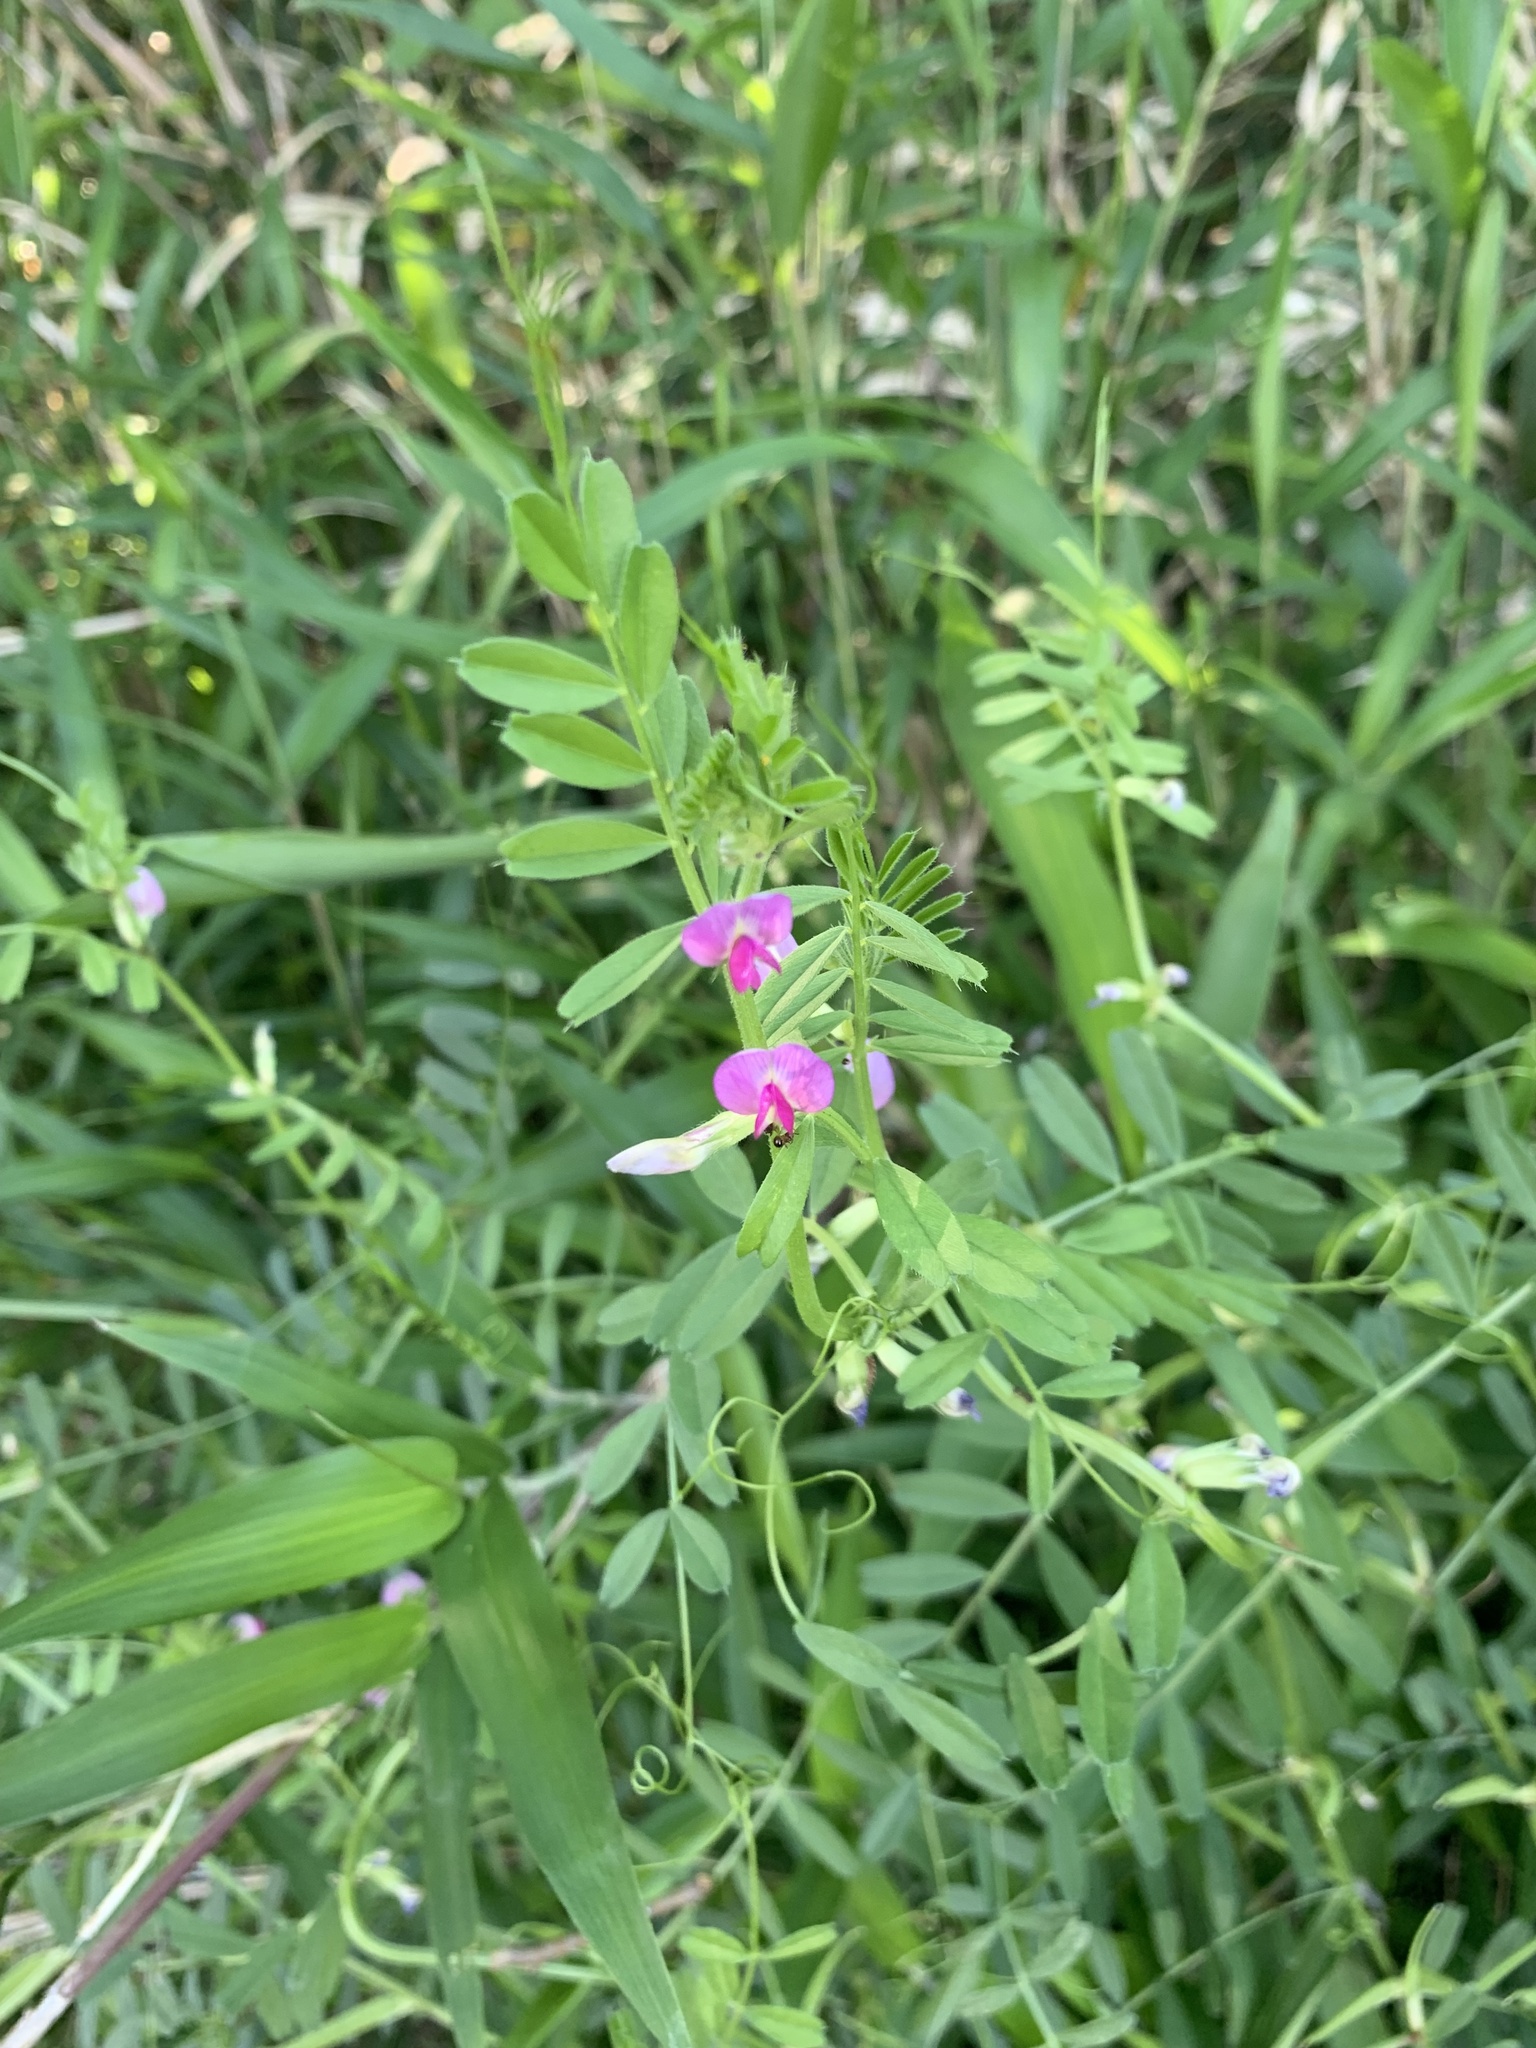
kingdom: Plantae
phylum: Tracheophyta
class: Magnoliopsida
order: Fabales
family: Fabaceae
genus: Vicia
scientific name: Vicia sativa
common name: Garden vetch
